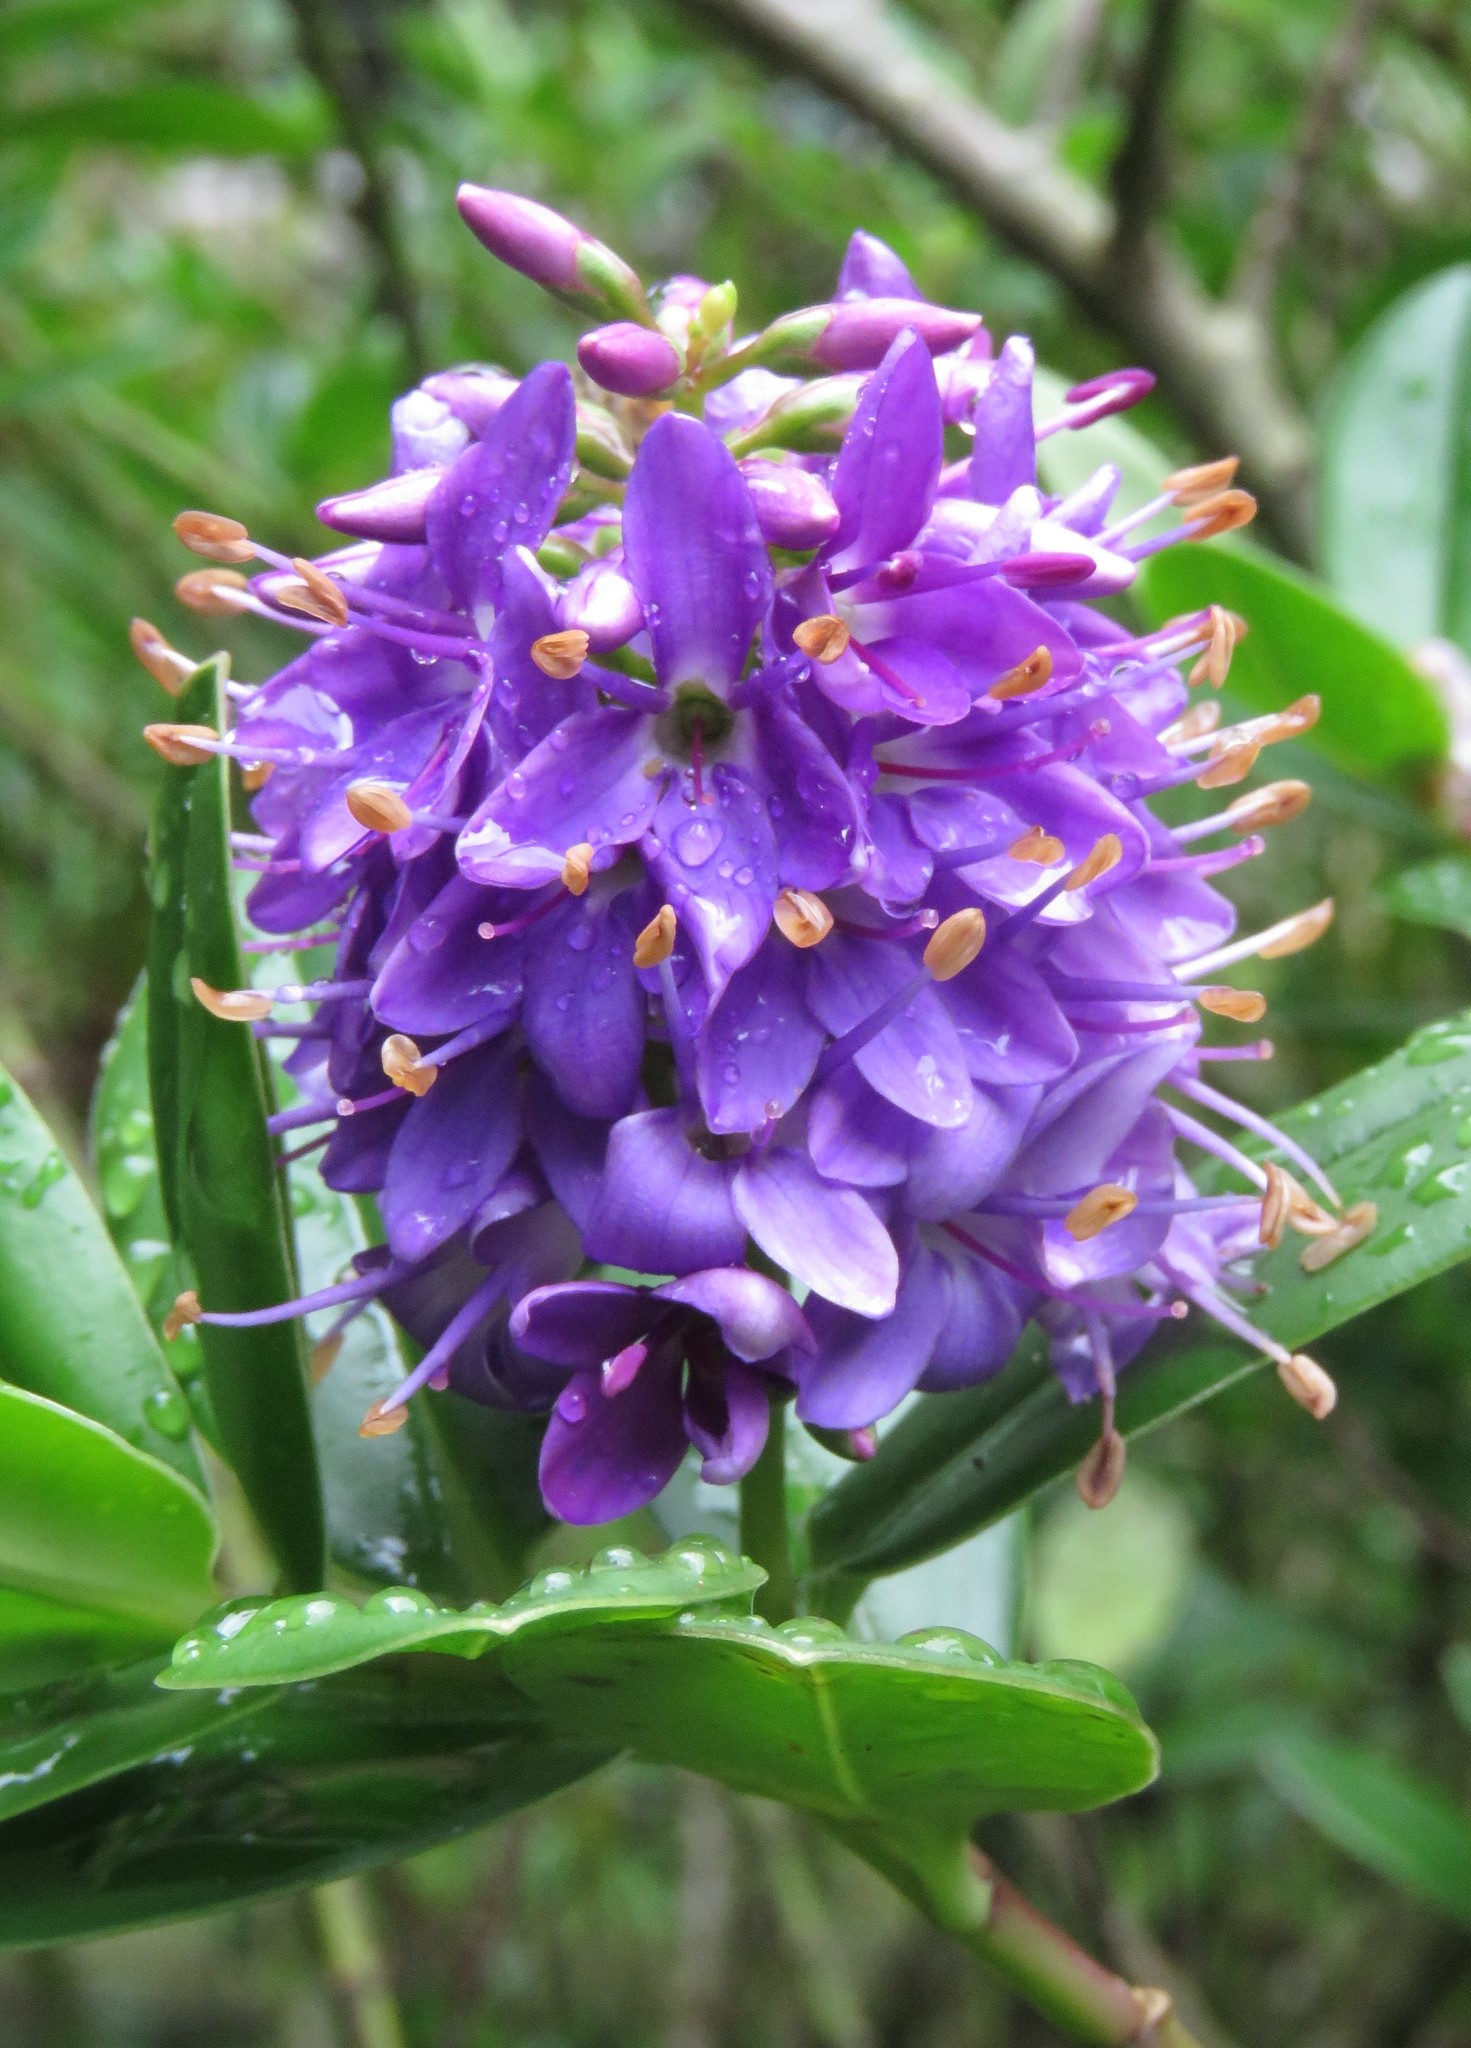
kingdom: Animalia
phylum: Arthropoda
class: Insecta
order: Hymenoptera
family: Apidae
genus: Apis
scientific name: Apis mellifera
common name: Honey bee
